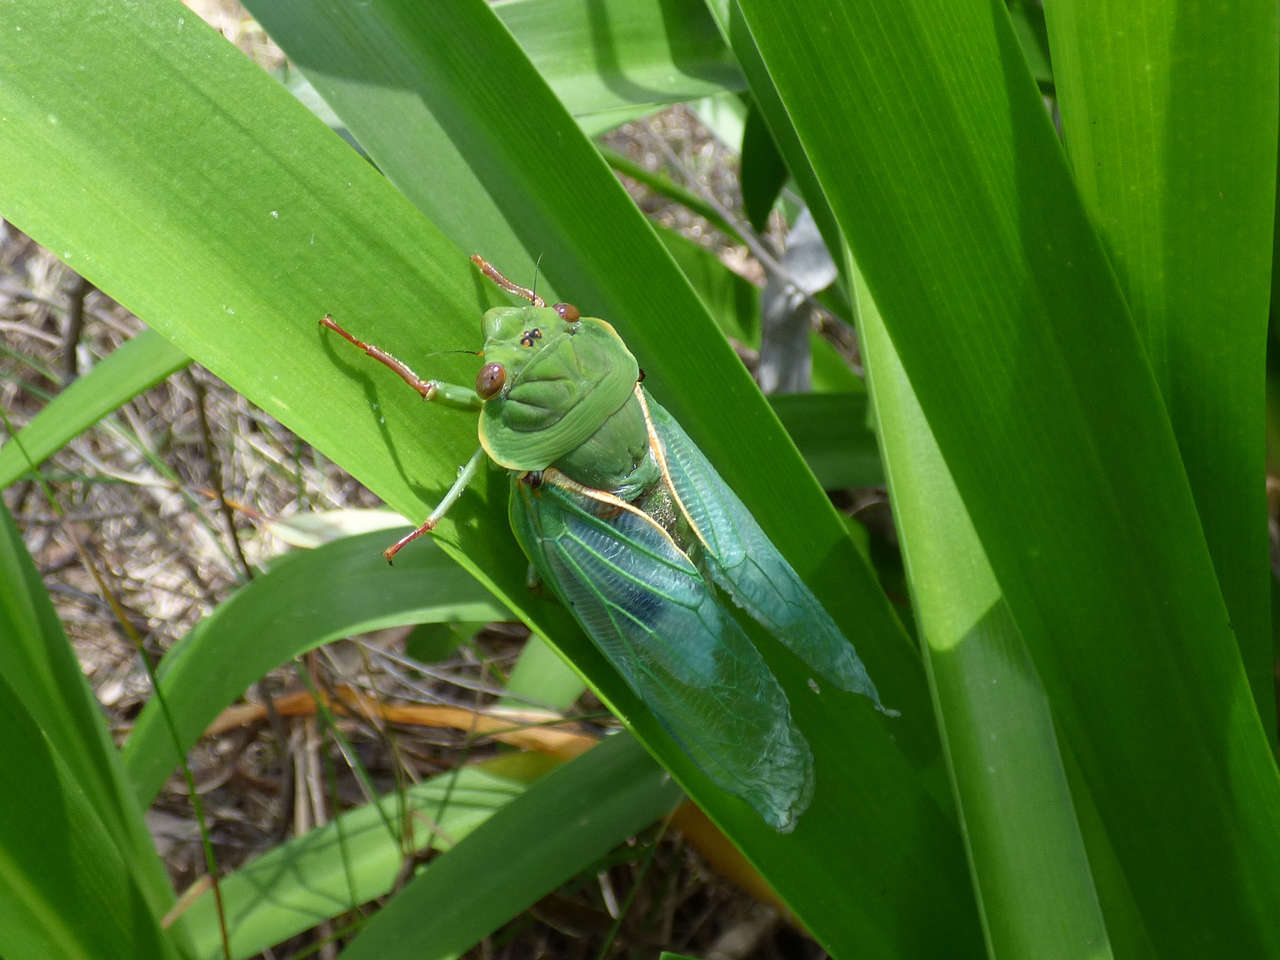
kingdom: Animalia
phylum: Arthropoda
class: Insecta
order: Hemiptera
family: Cicadidae
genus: Cyclochila
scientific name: Cyclochila australasiae
